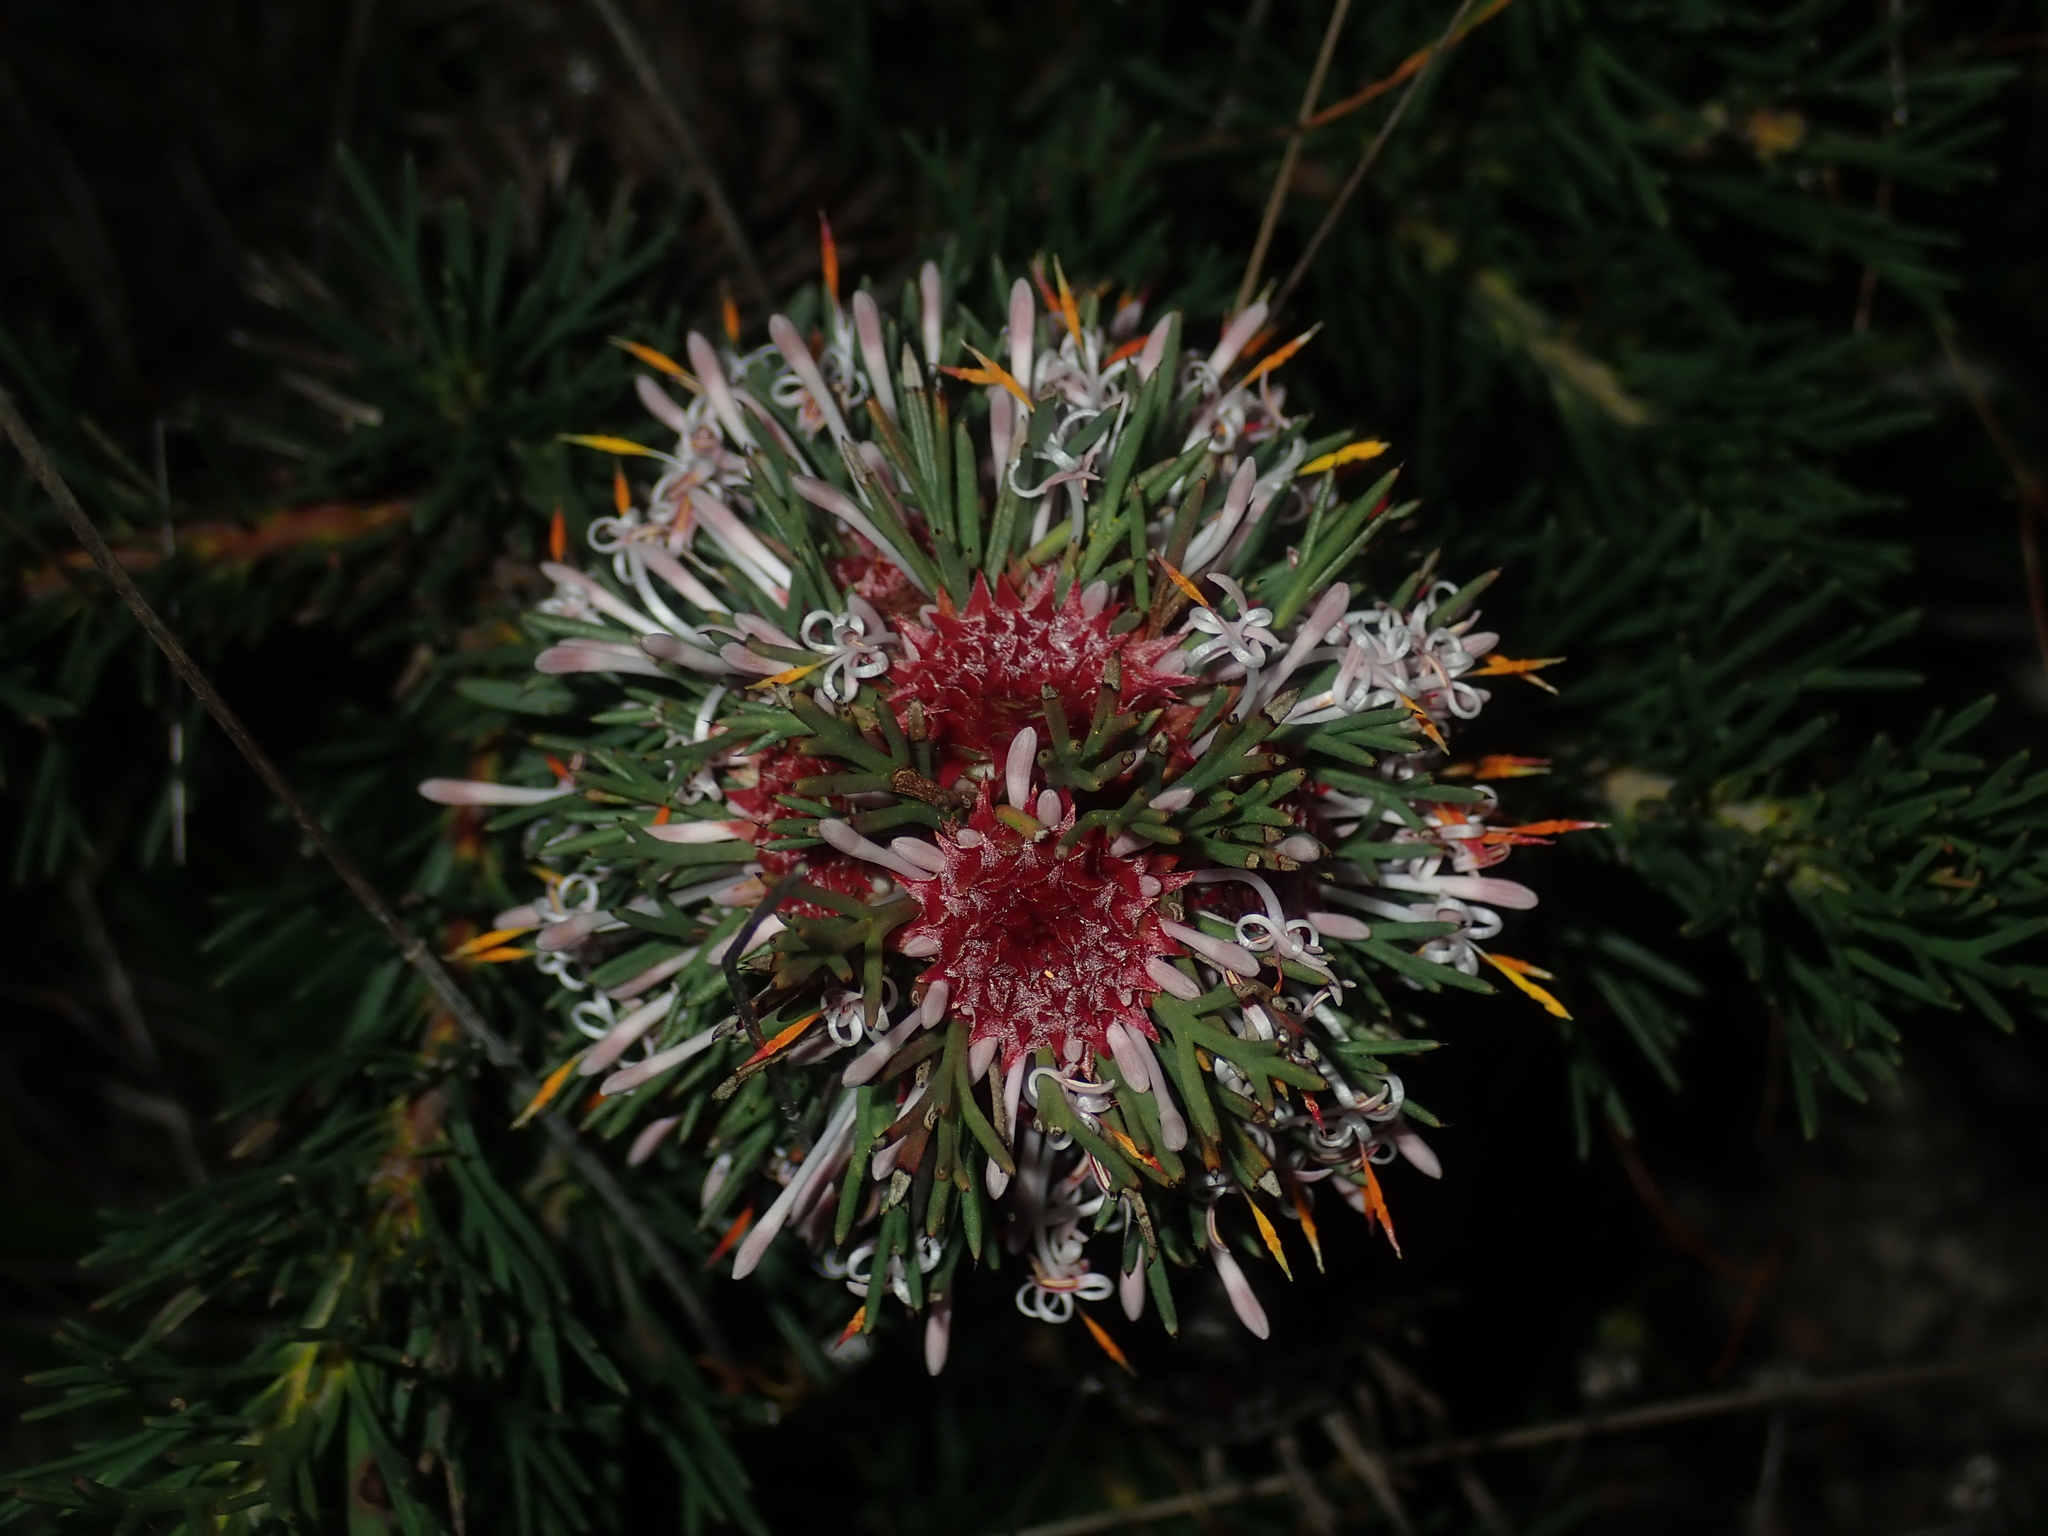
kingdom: Plantae
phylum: Tracheophyta
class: Magnoliopsida
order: Proteales
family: Proteaceae
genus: Isopogon
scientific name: Isopogon asper
